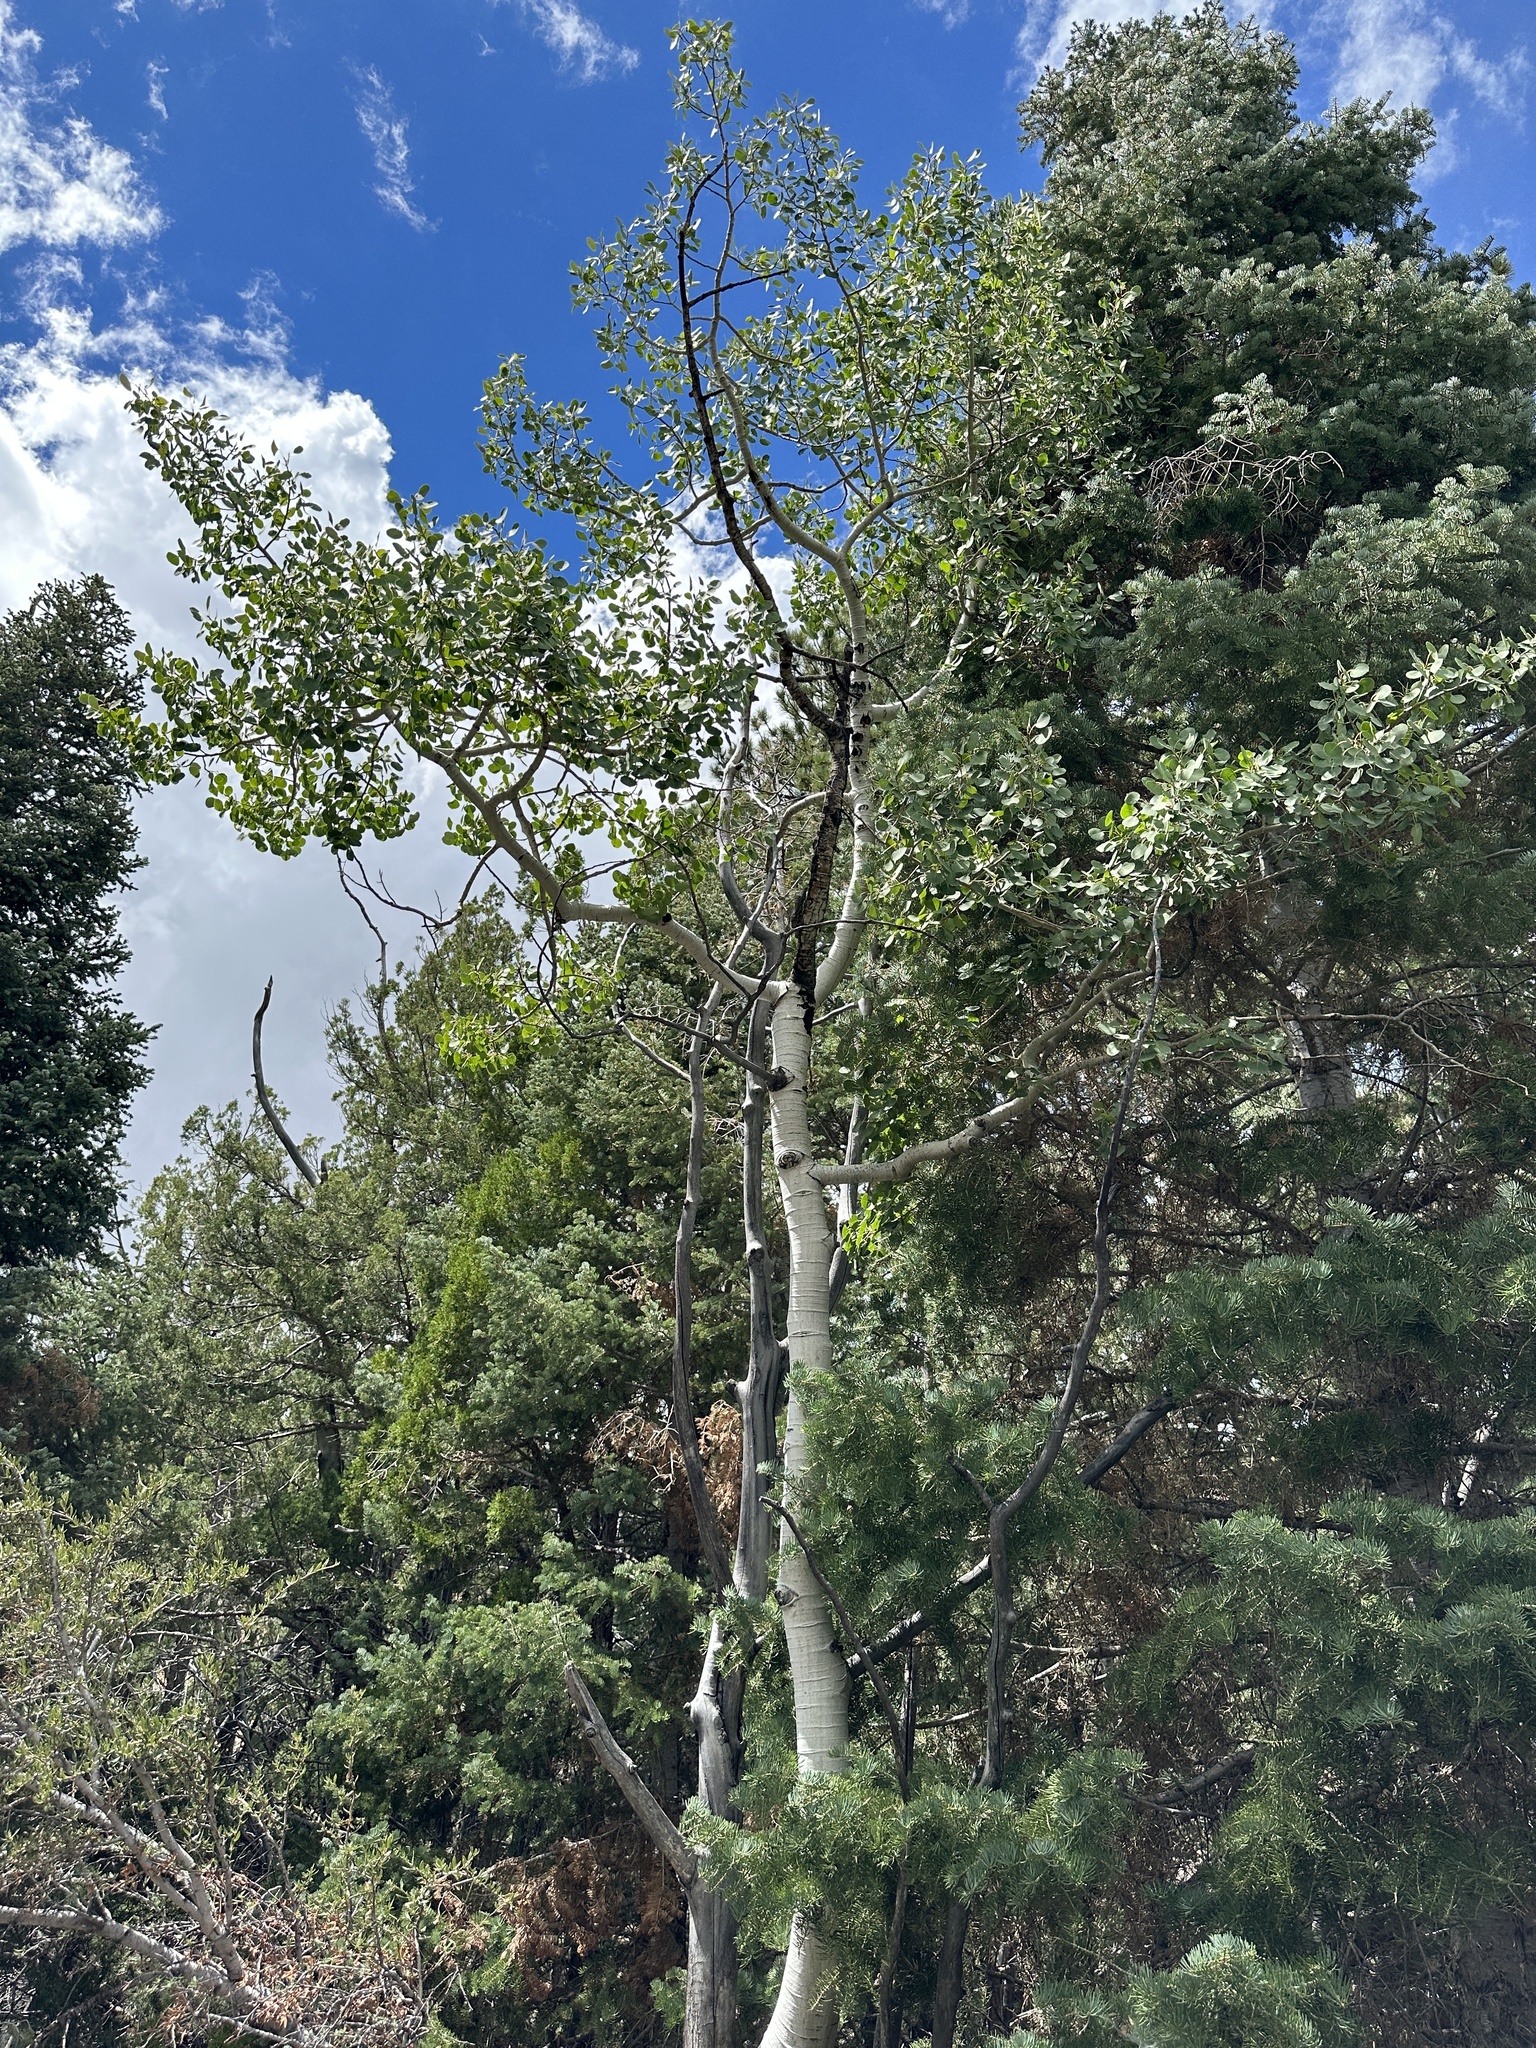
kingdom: Plantae
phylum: Tracheophyta
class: Magnoliopsida
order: Malpighiales
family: Salicaceae
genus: Populus
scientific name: Populus tremuloides
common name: Quaking aspen
